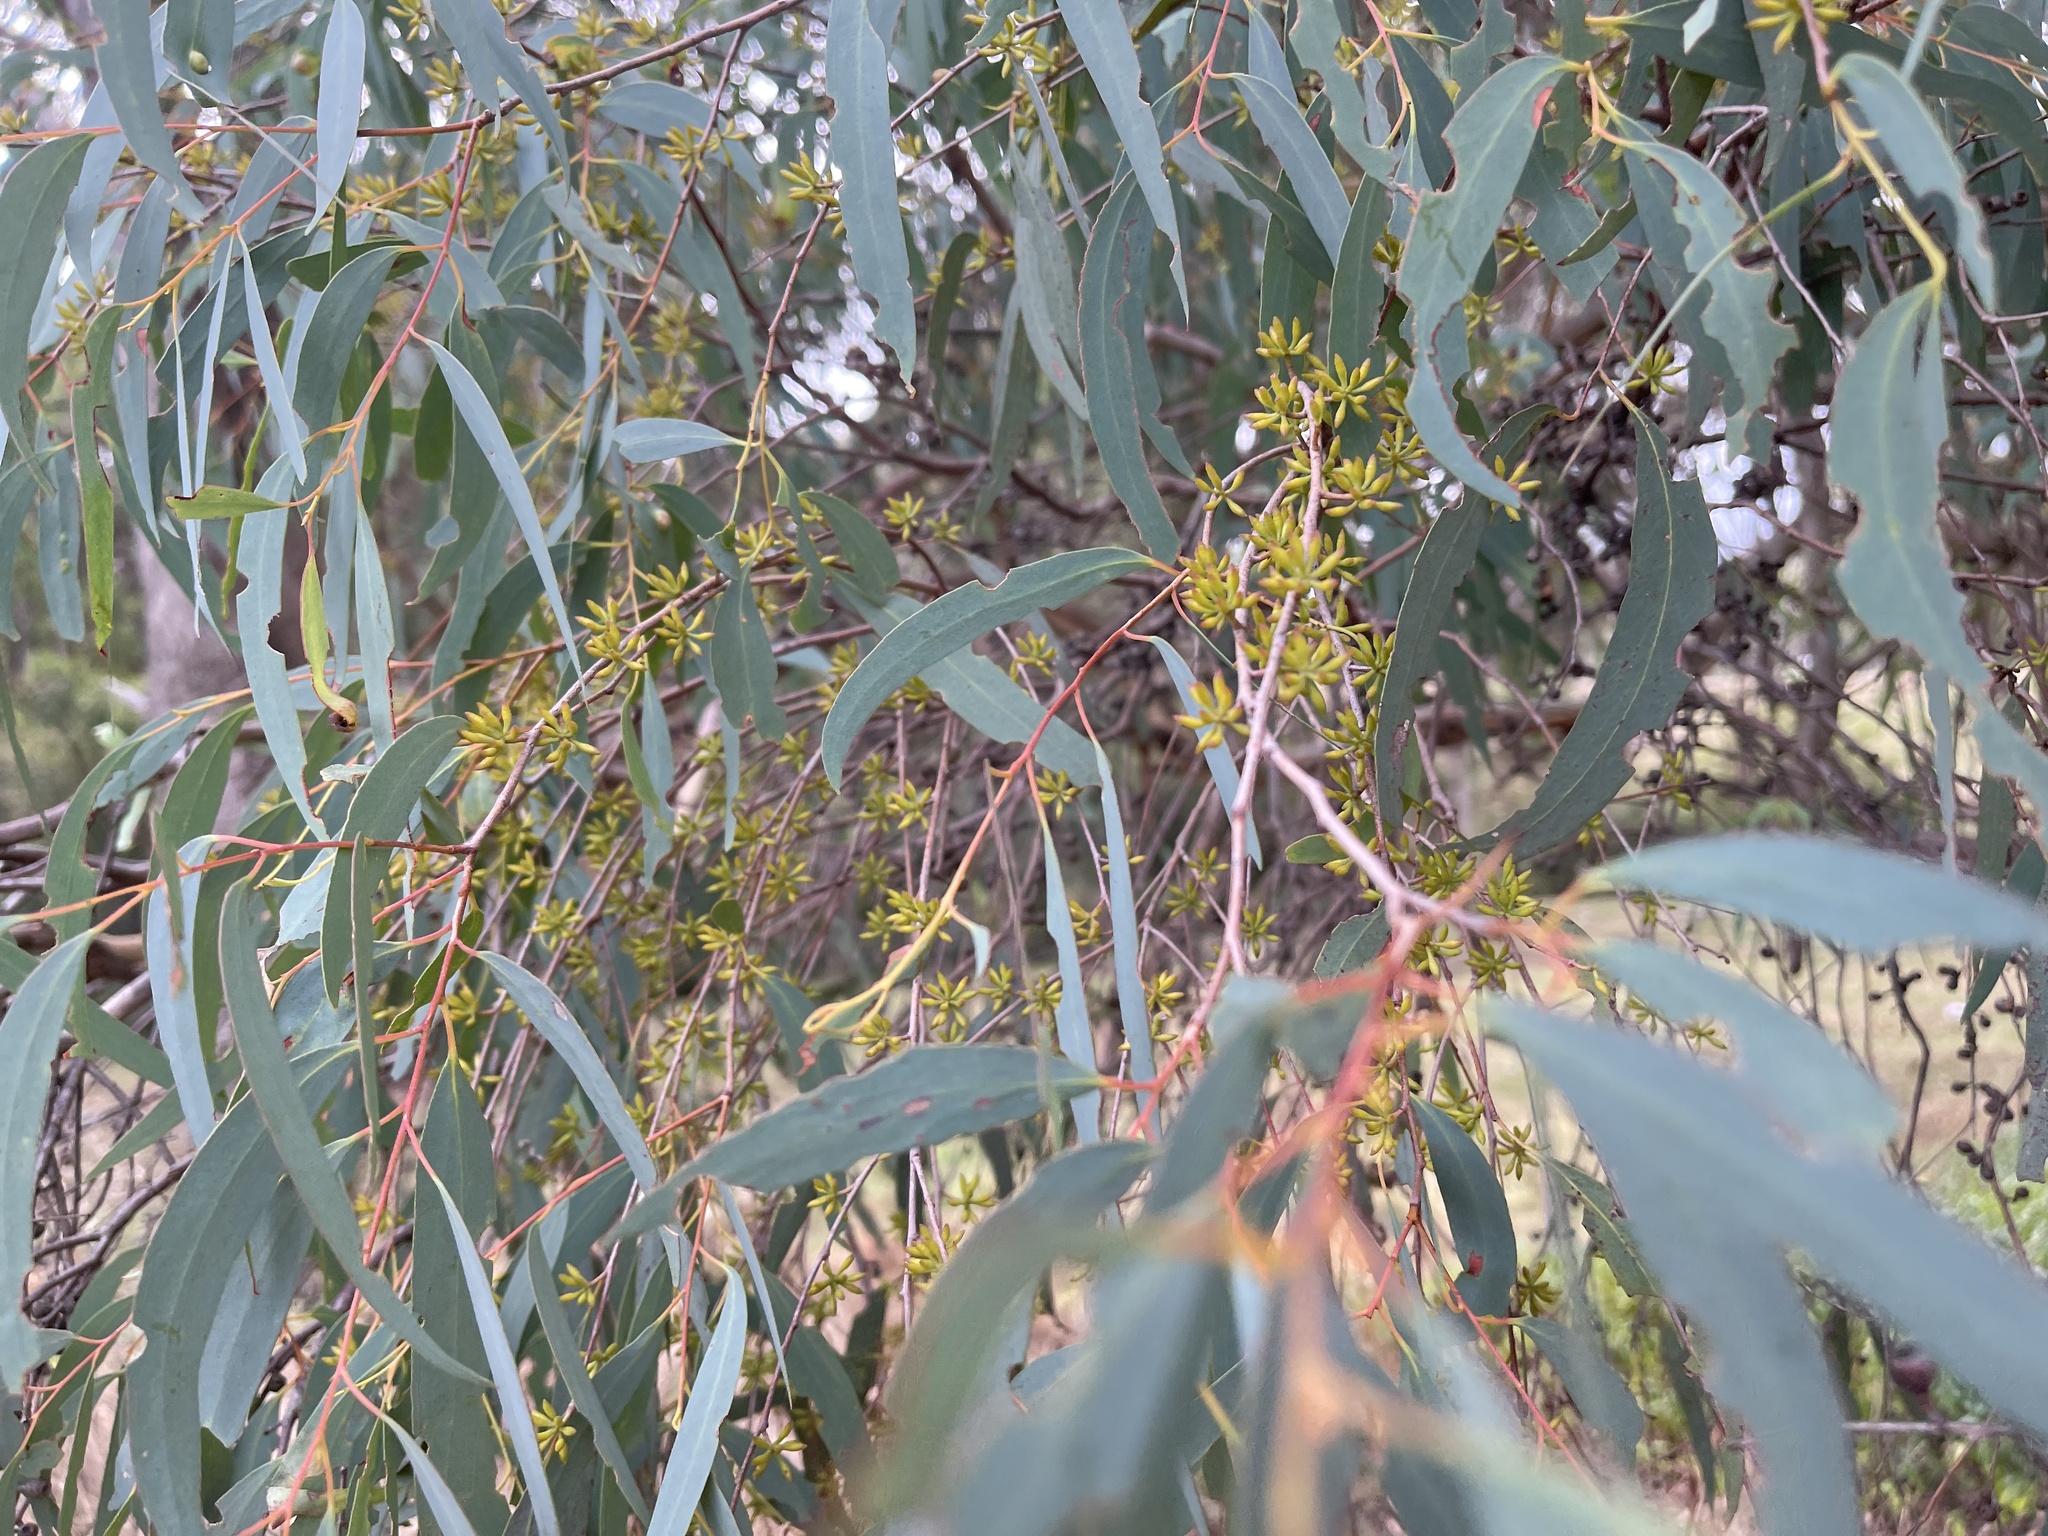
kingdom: Plantae
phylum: Tracheophyta
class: Magnoliopsida
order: Myrtales
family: Myrtaceae
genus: Eucalyptus
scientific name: Eucalyptus radiata
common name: Narrow-leaved-peppermint
